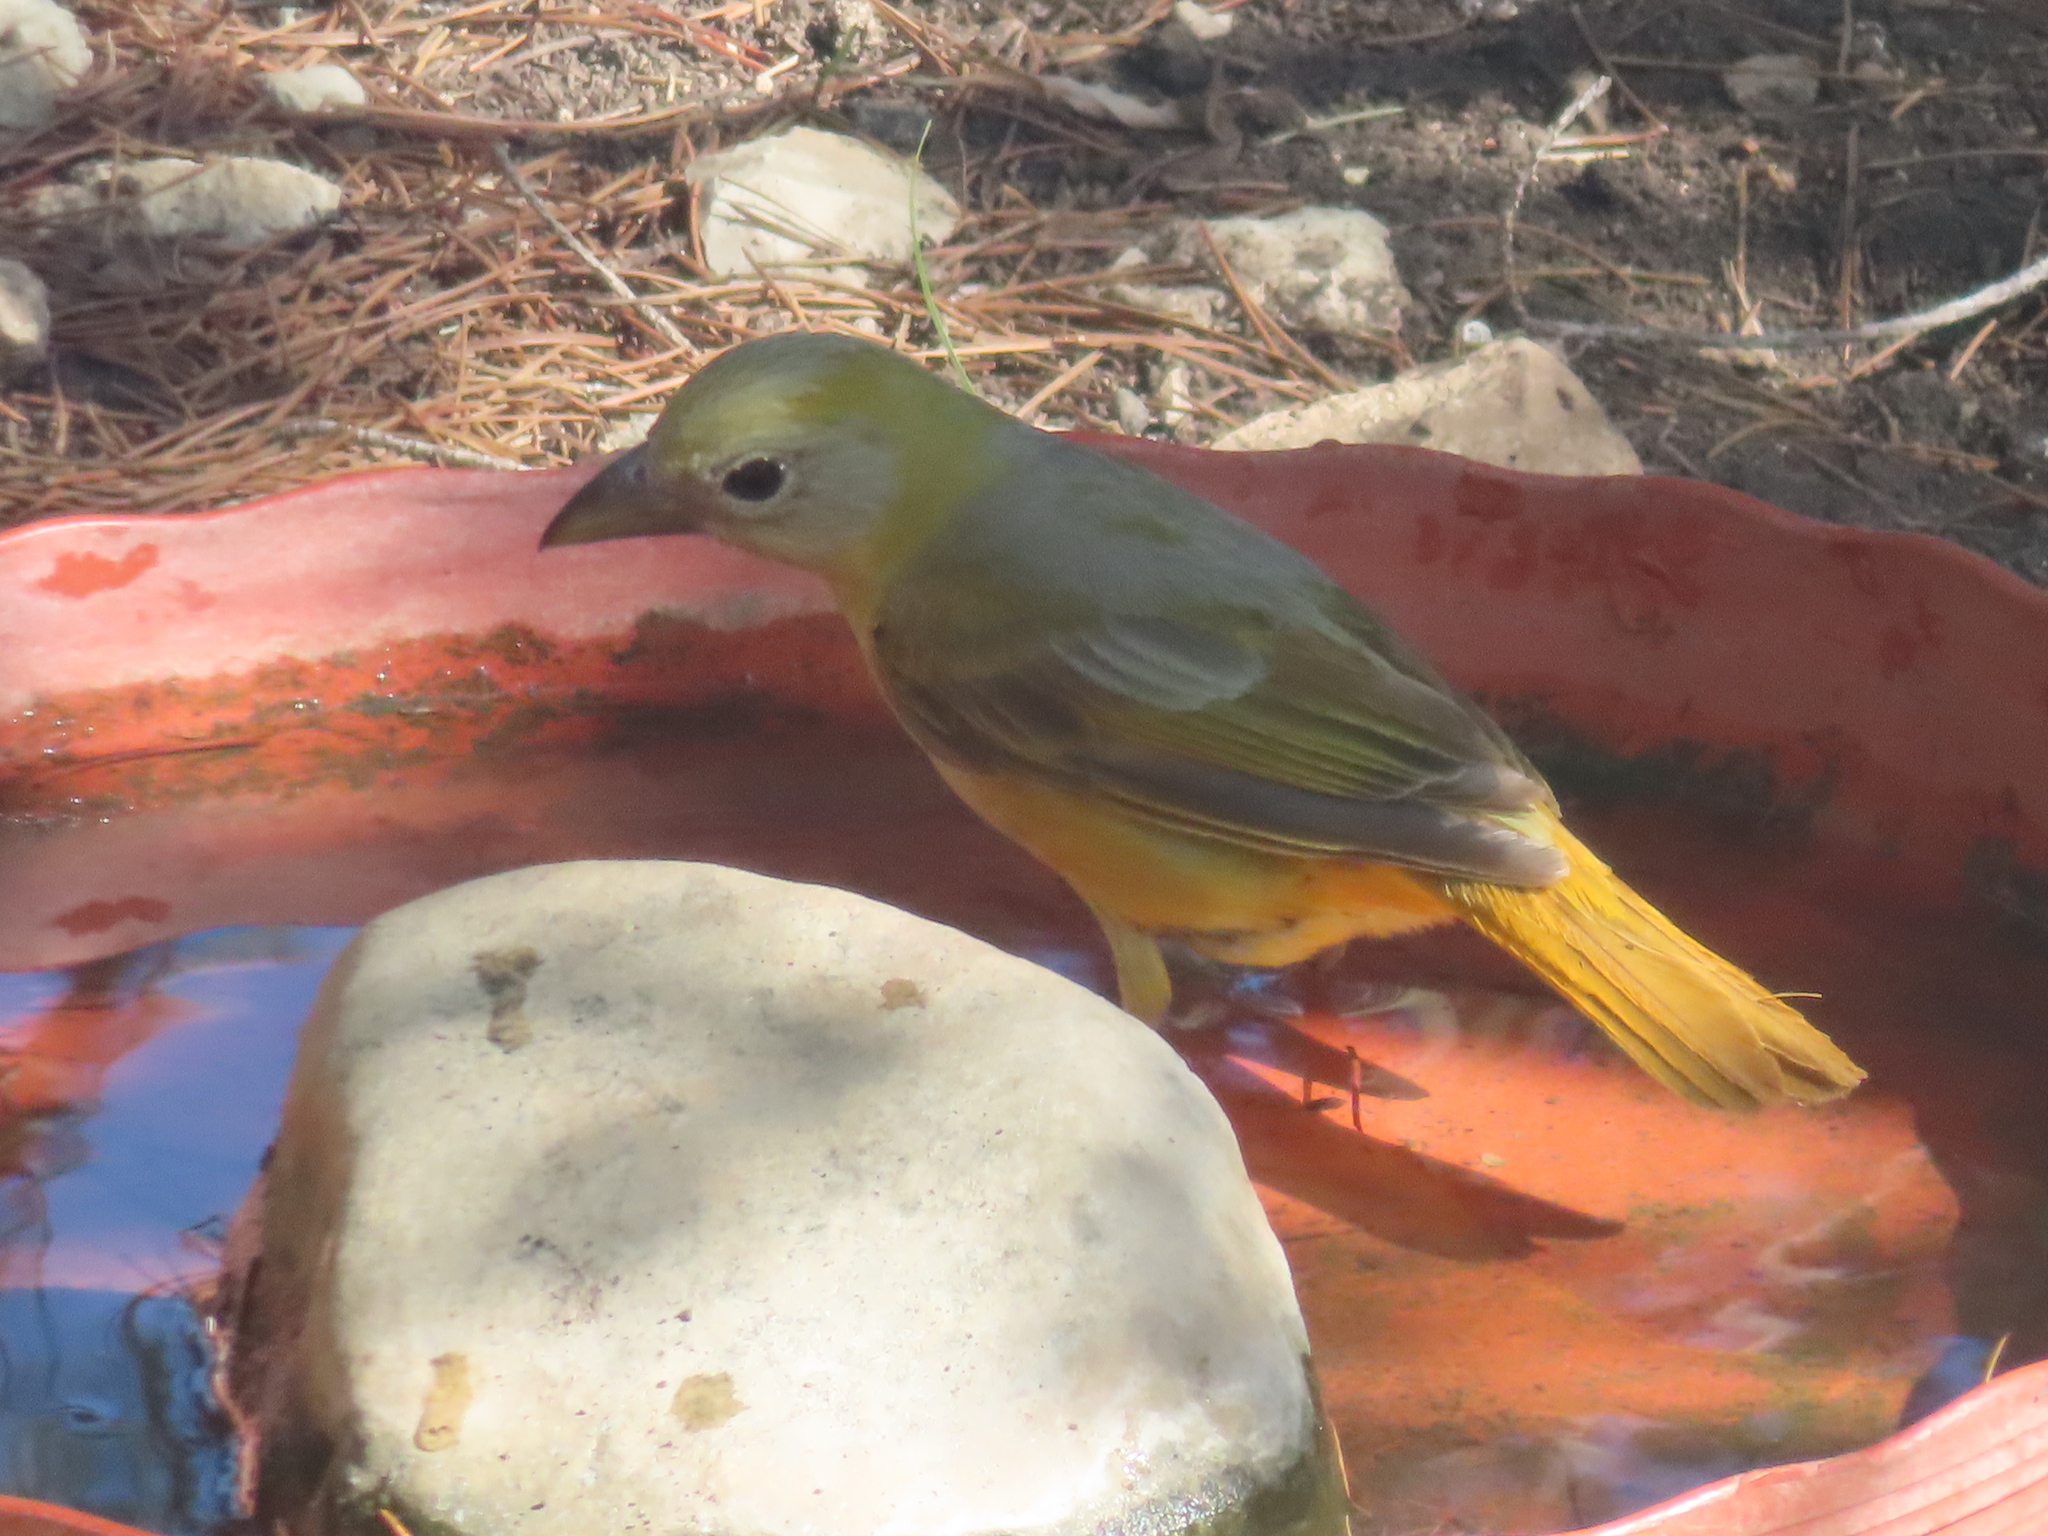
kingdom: Animalia
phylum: Chordata
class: Aves
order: Passeriformes
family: Cardinalidae
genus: Piranga
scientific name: Piranga rubra
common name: Summer tanager
